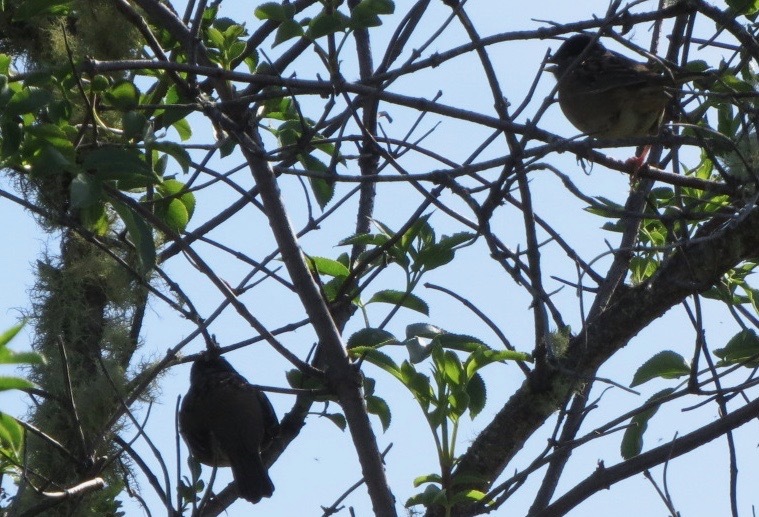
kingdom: Animalia
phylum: Chordata
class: Aves
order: Passeriformes
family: Passerellidae
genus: Zonotrichia
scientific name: Zonotrichia atricapilla
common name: Golden-crowned sparrow
